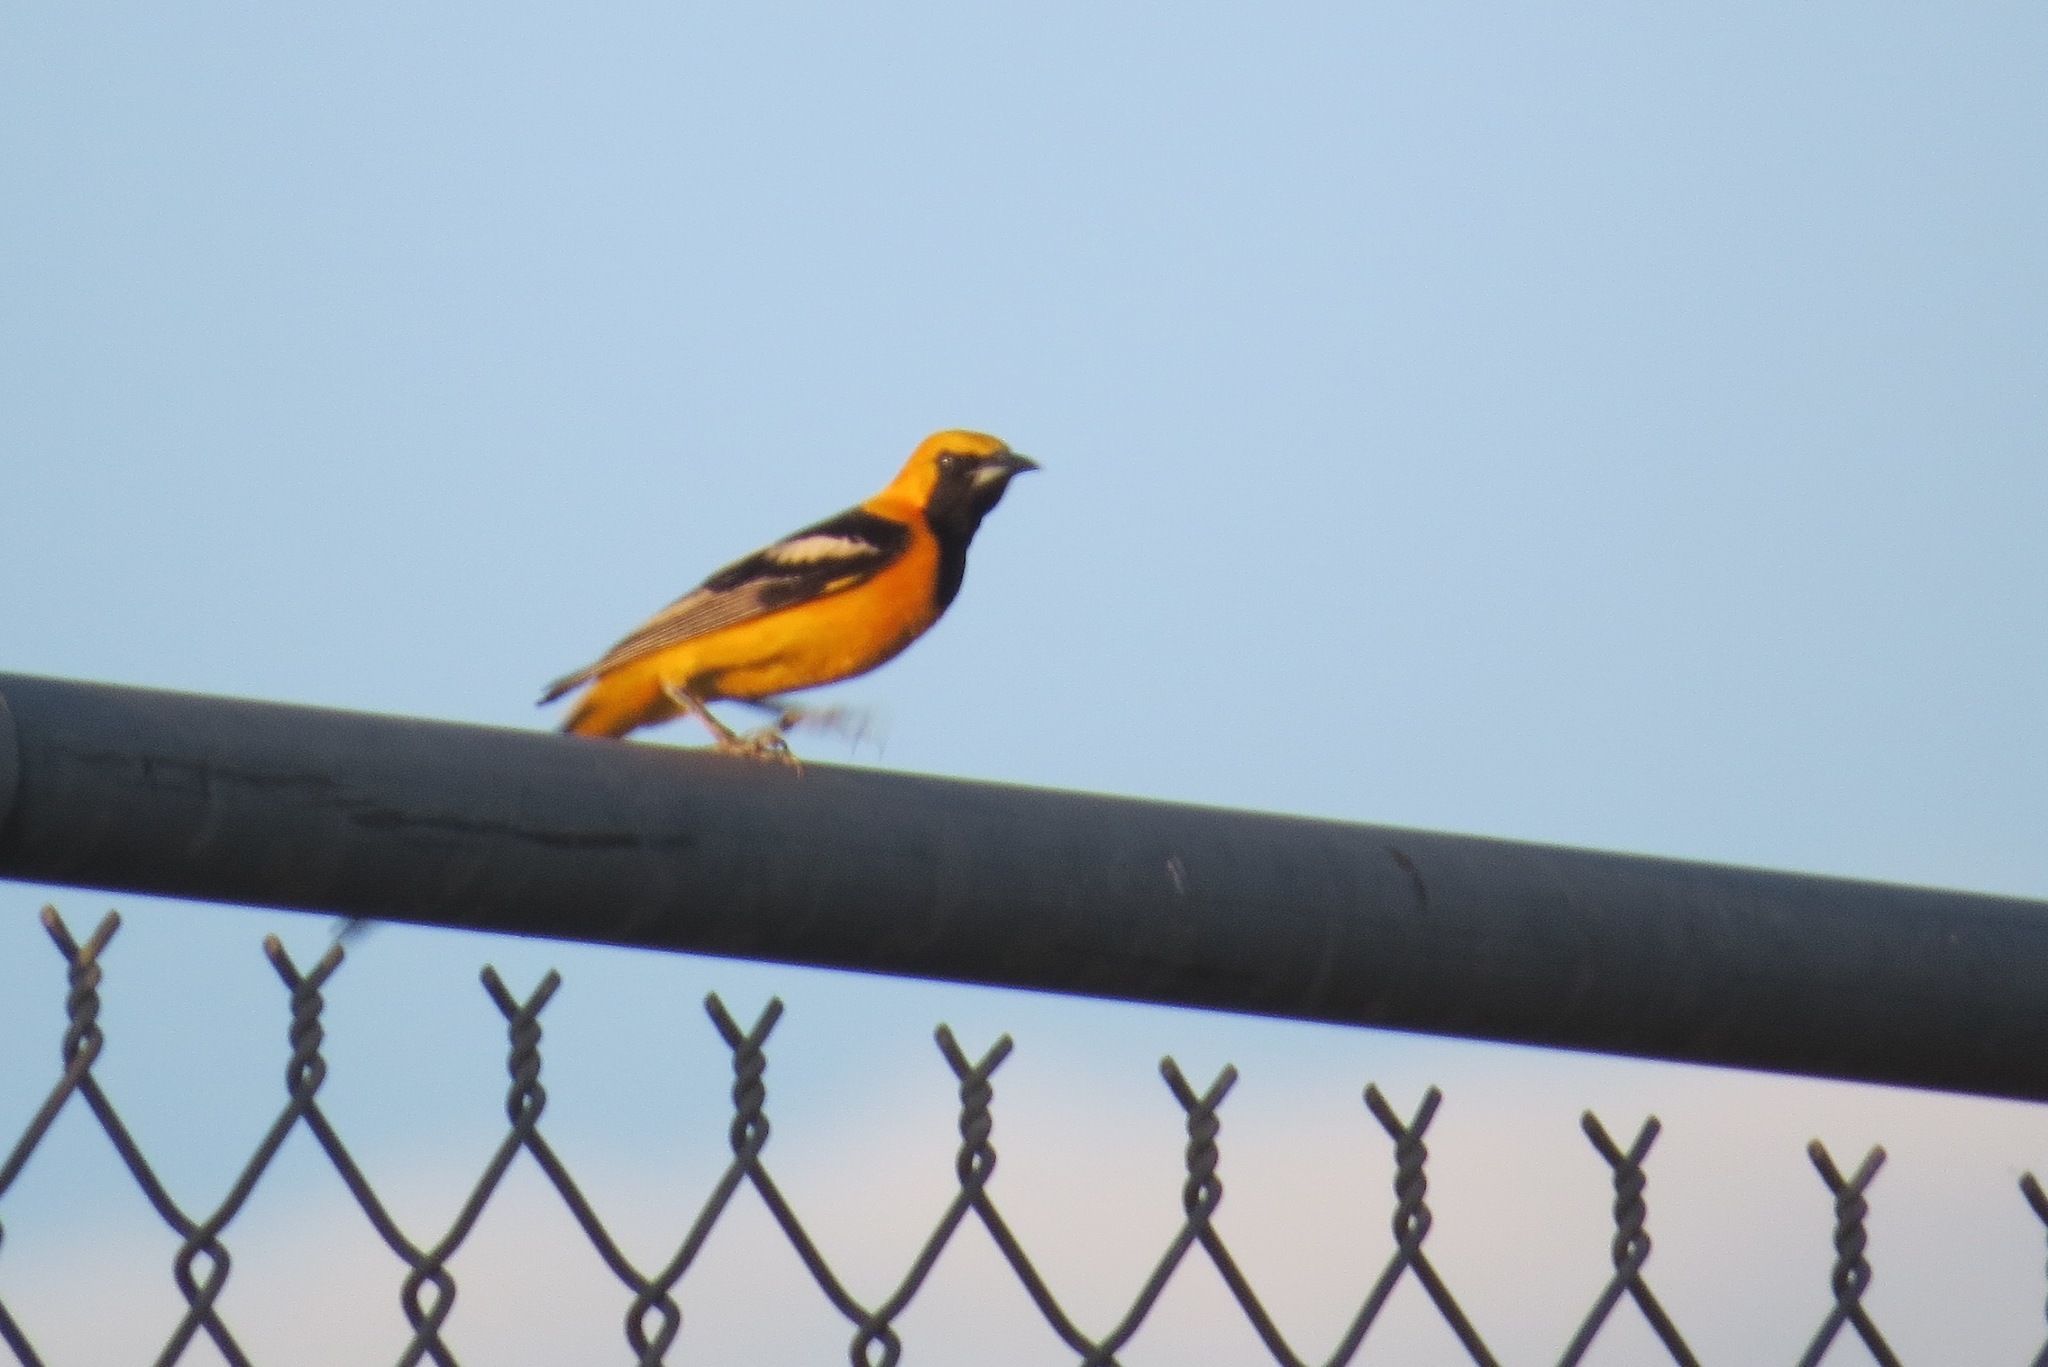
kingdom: Animalia
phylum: Chordata
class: Aves
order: Passeriformes
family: Icteridae
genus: Icterus
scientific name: Icterus cucullatus
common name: Hooded oriole
